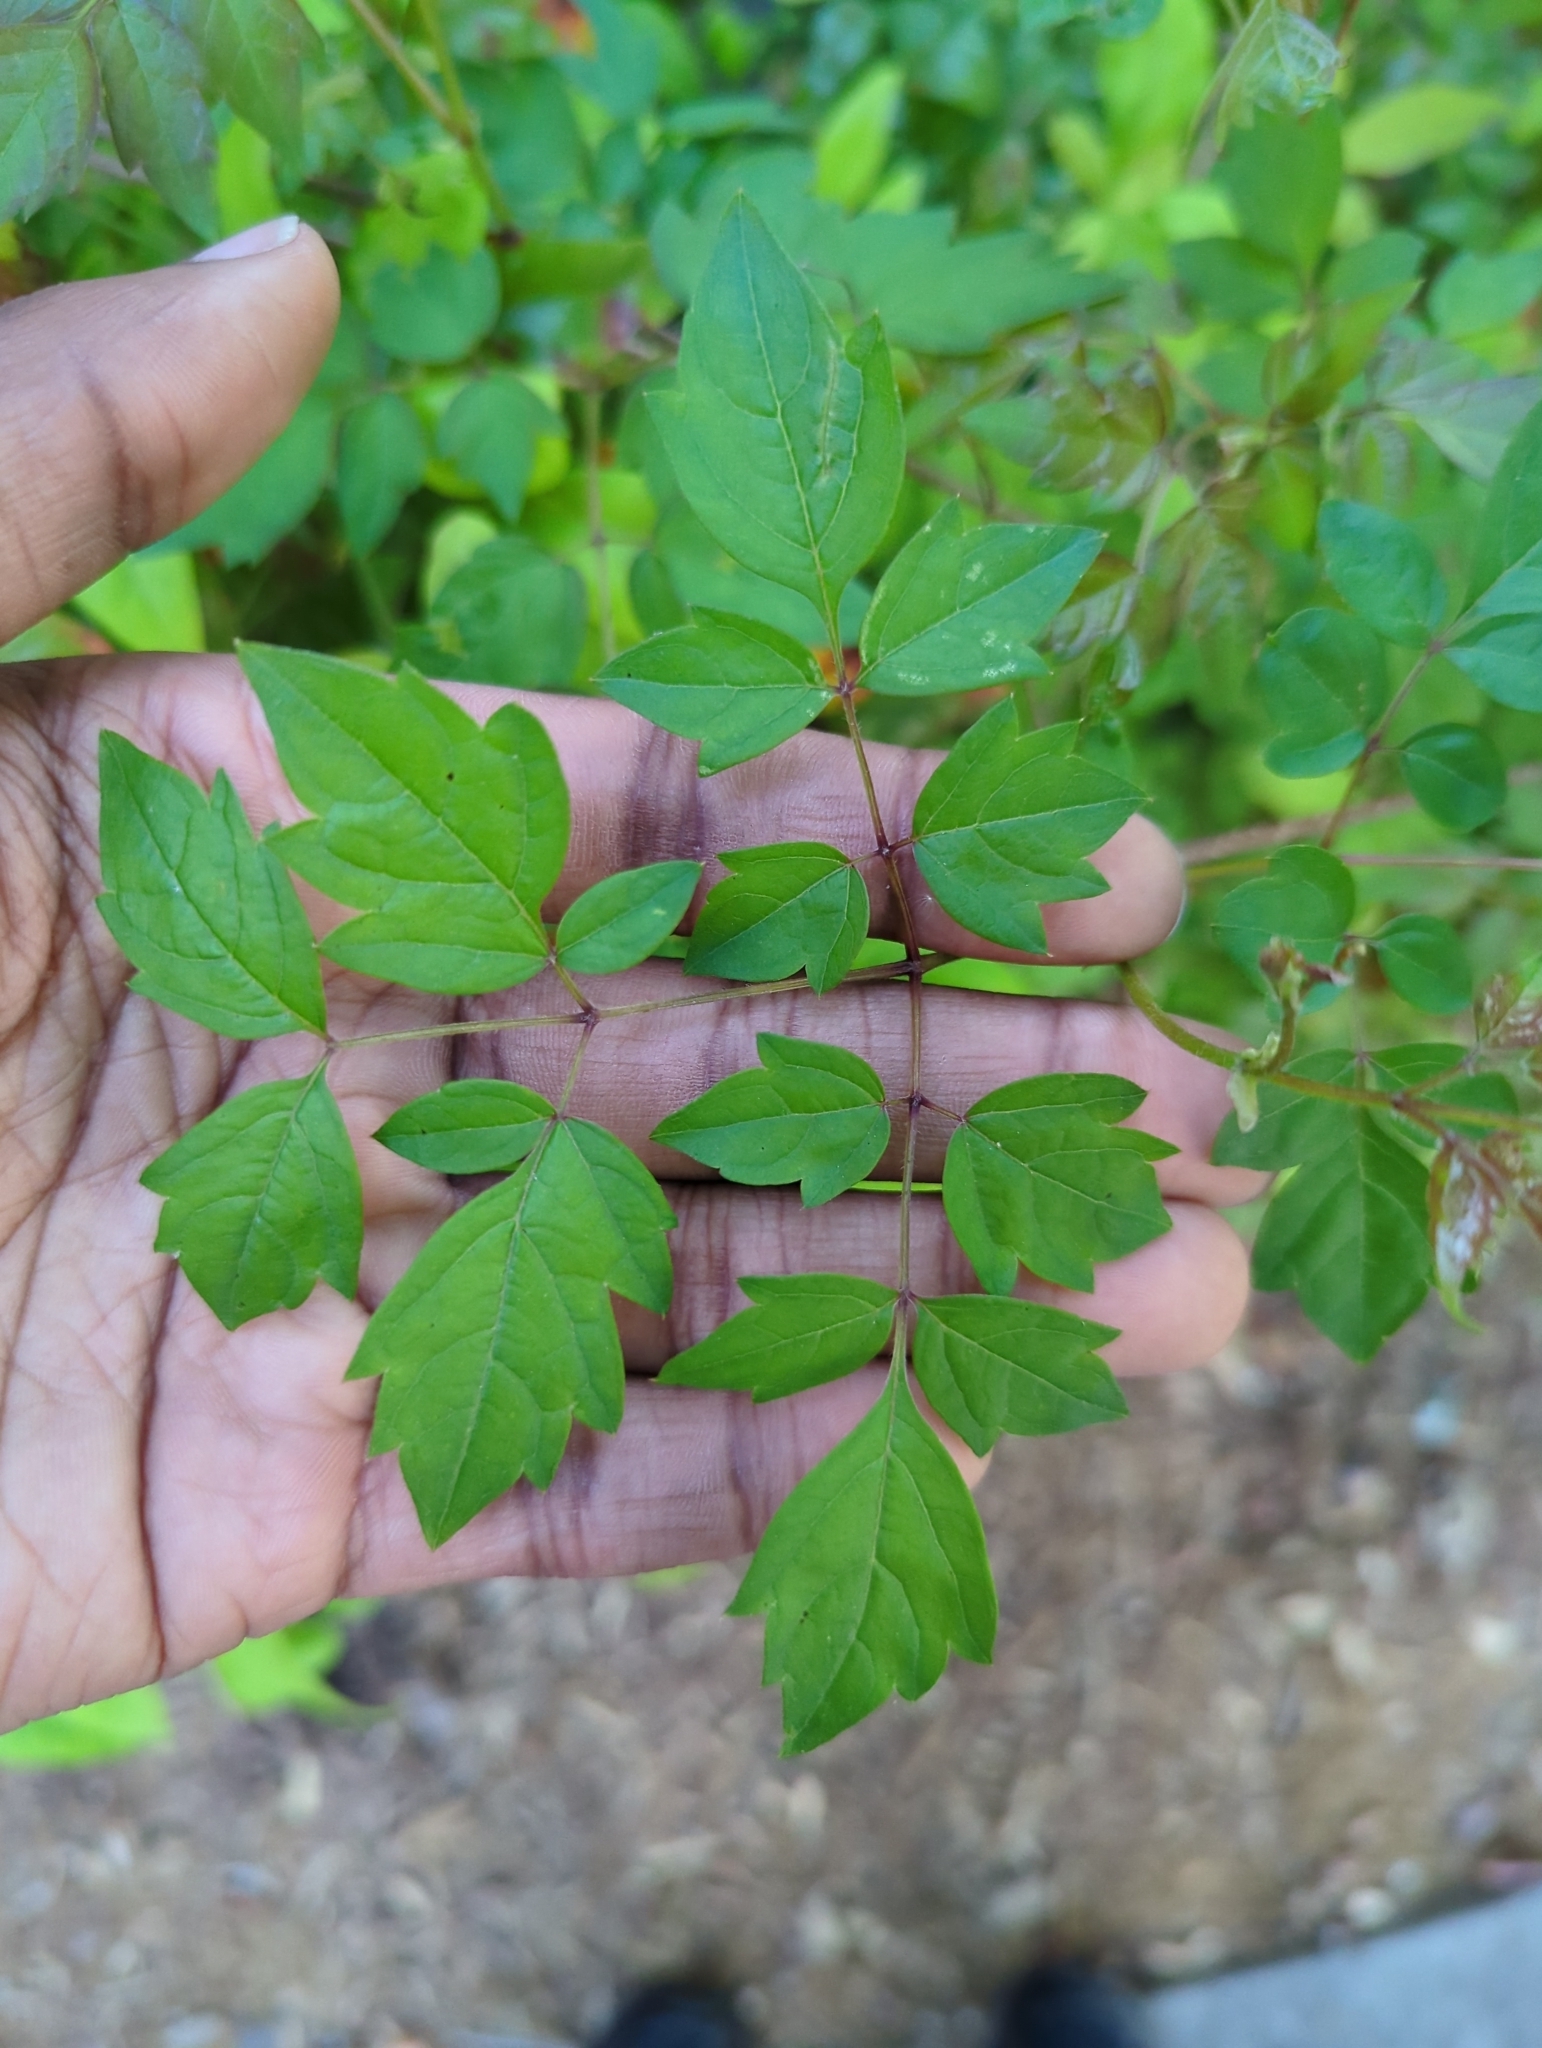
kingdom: Plantae
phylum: Tracheophyta
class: Magnoliopsida
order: Vitales
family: Vitaceae
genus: Nekemias
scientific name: Nekemias arborea
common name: Peppervine
